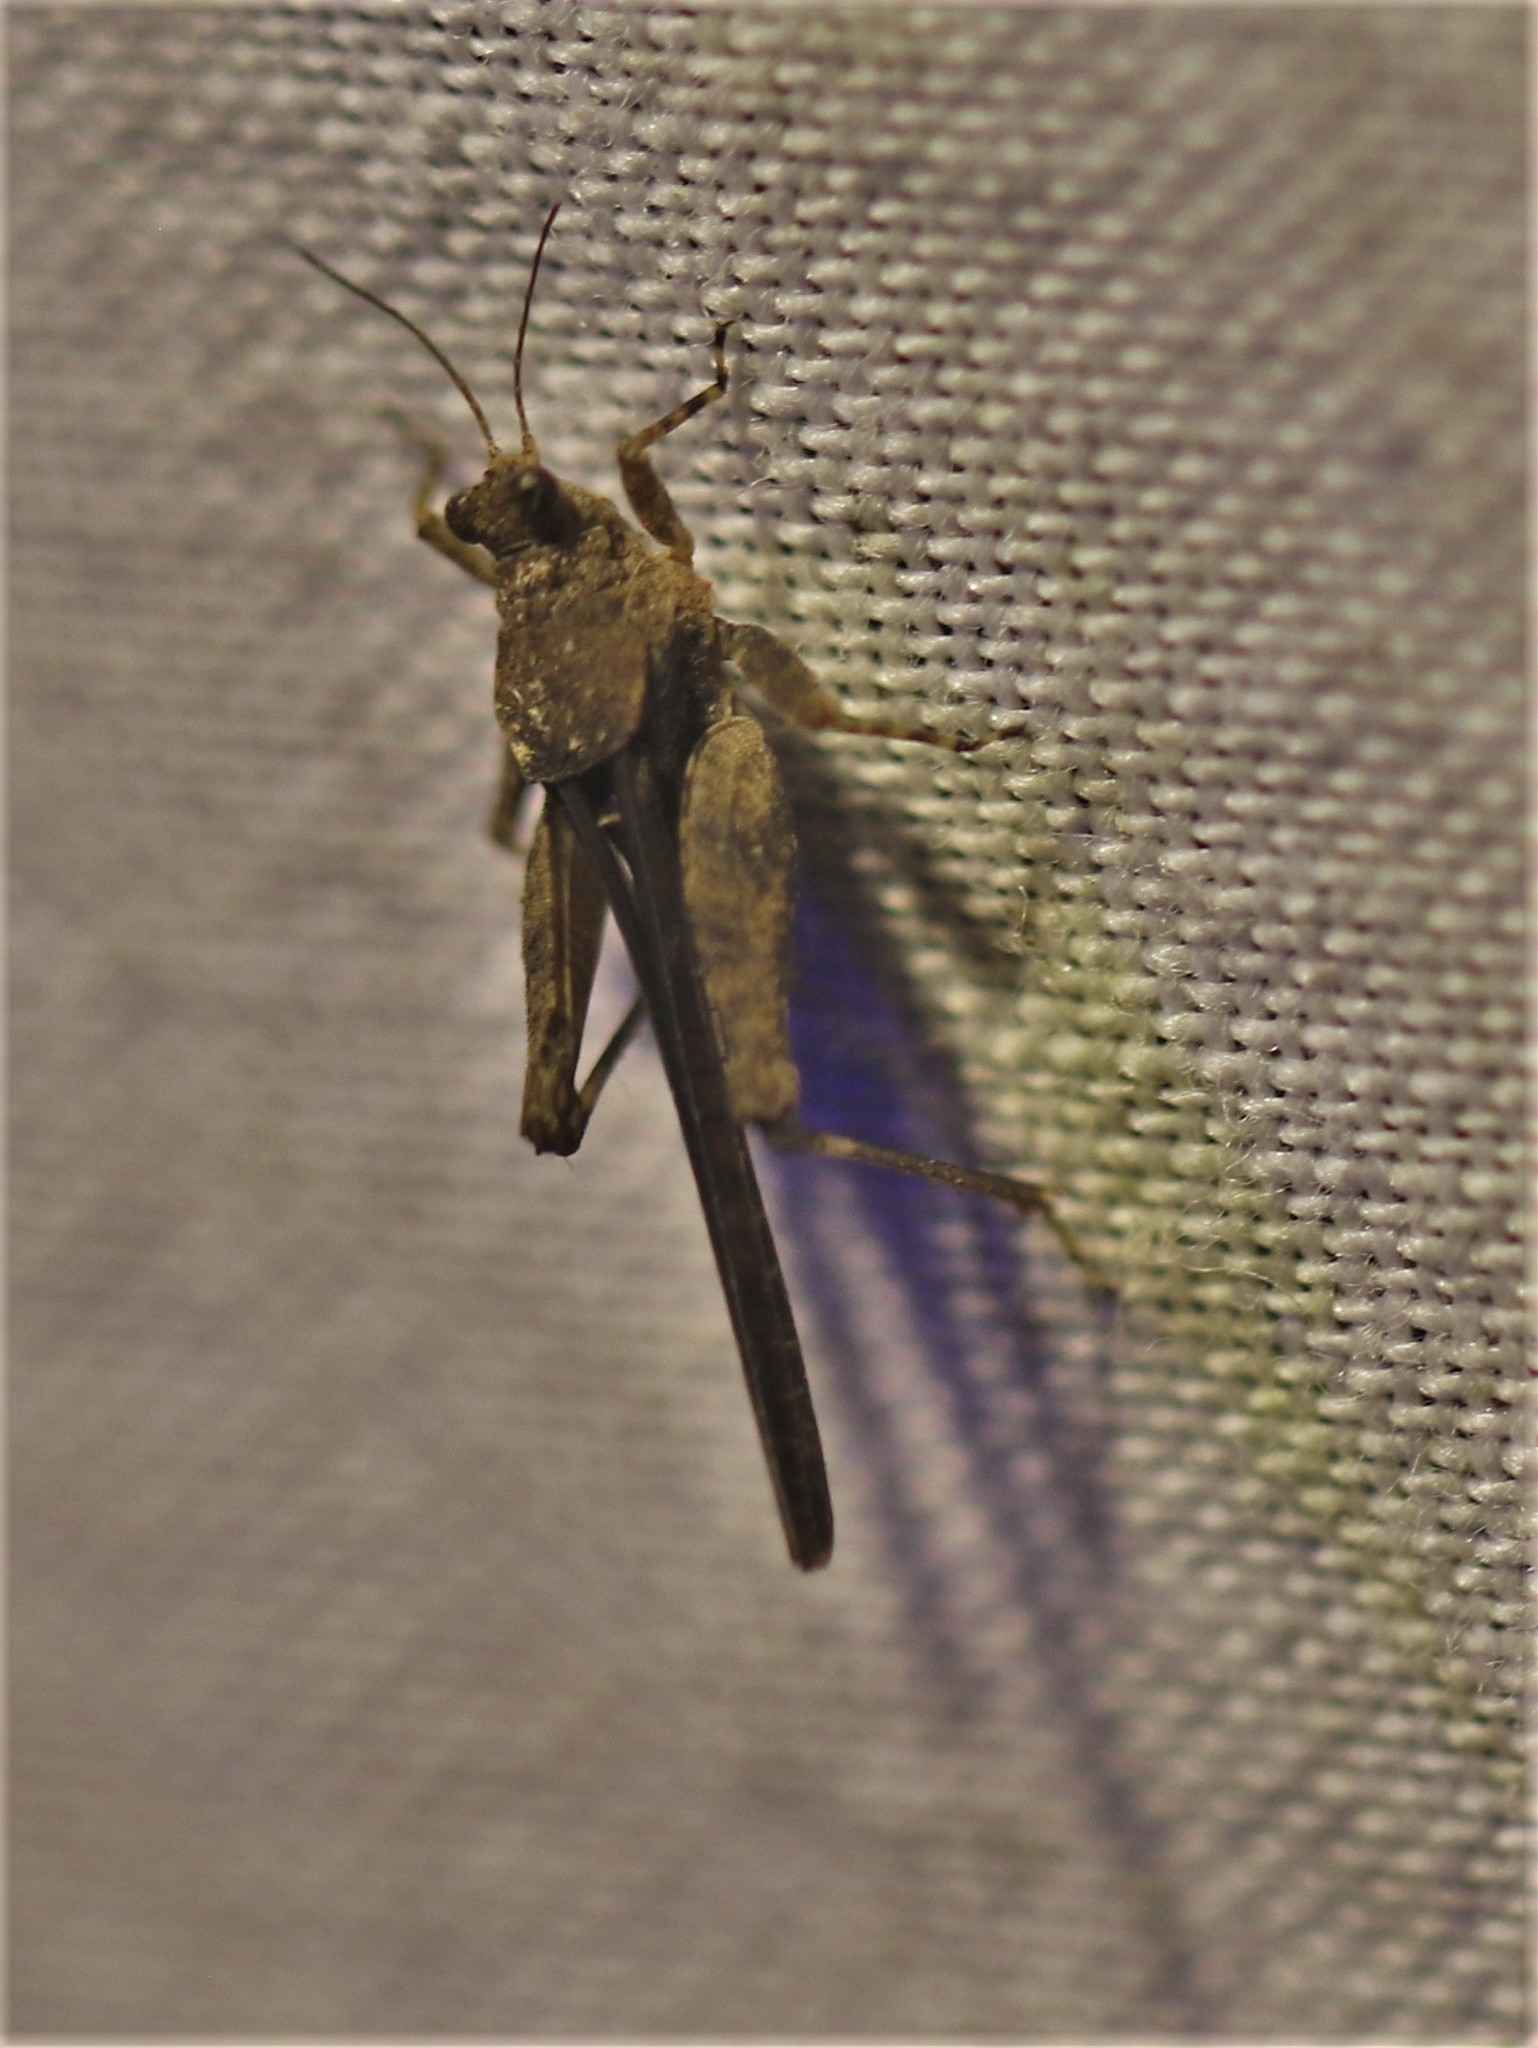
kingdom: Animalia
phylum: Arthropoda
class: Insecta
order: Orthoptera
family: Tetrigidae
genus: Crimisus
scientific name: Crimisus costaricensis
